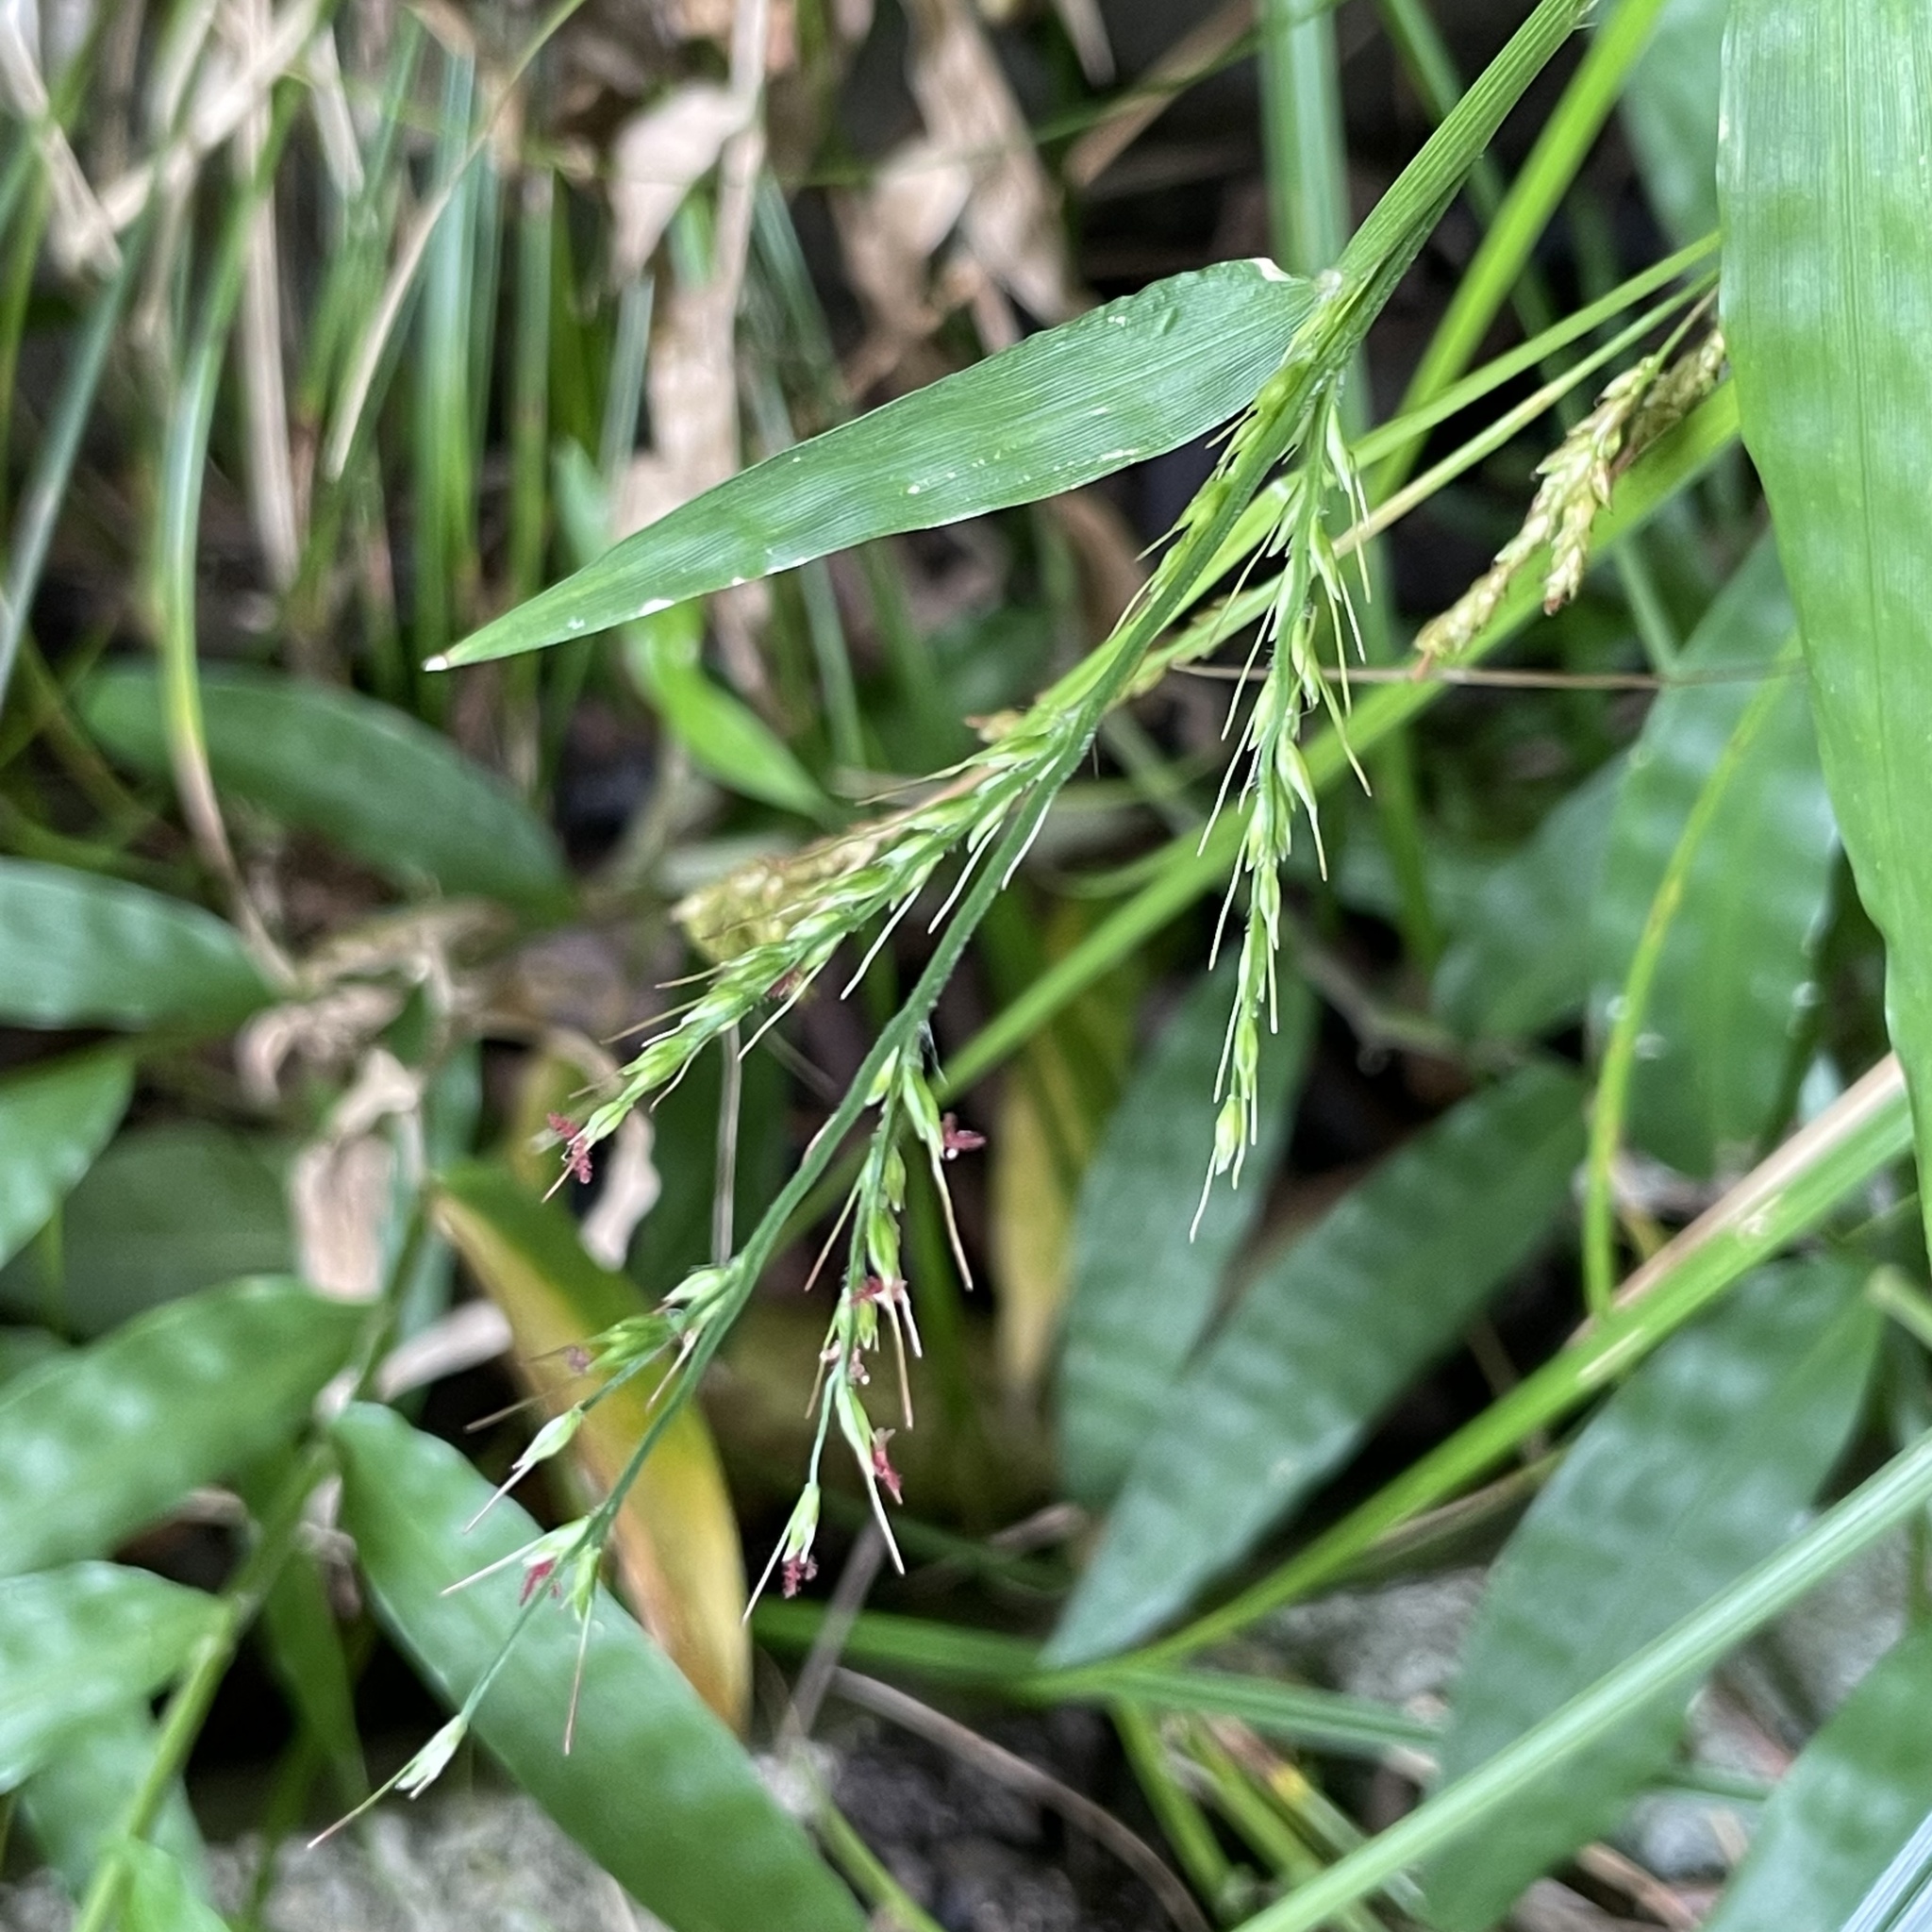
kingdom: Plantae
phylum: Tracheophyta
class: Liliopsida
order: Poales
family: Poaceae
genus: Oplismenus
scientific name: Oplismenus compositus
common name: Running mountain grass
